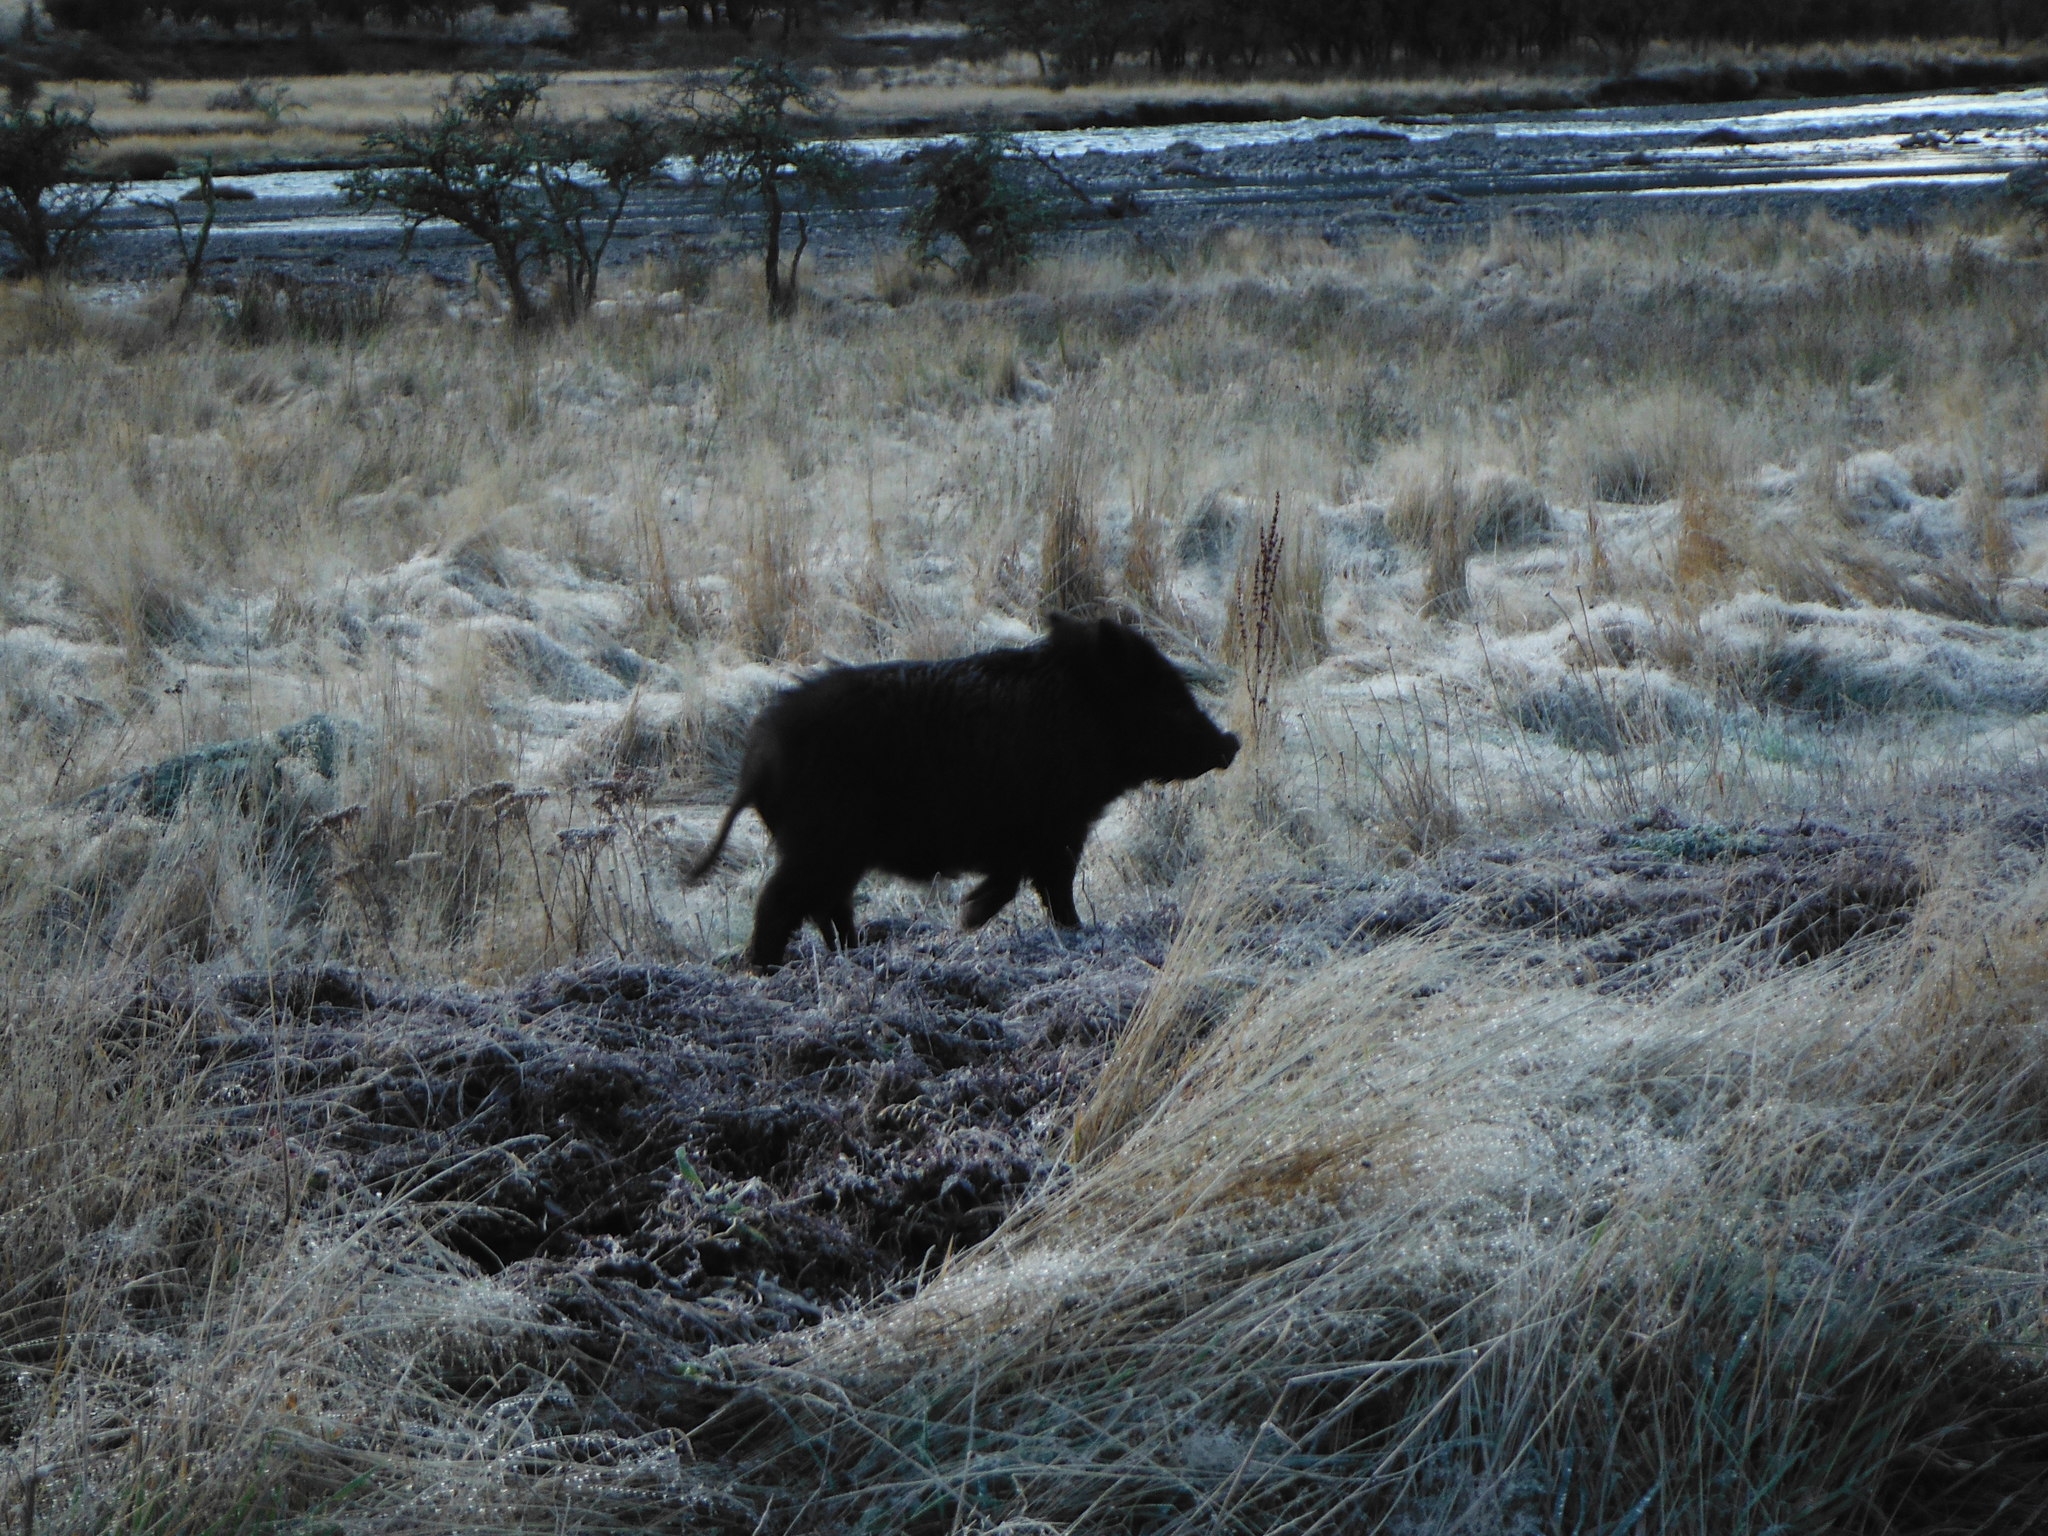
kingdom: Animalia
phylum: Chordata
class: Mammalia
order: Artiodactyla
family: Suidae
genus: Sus
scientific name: Sus scrofa
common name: Wild boar
